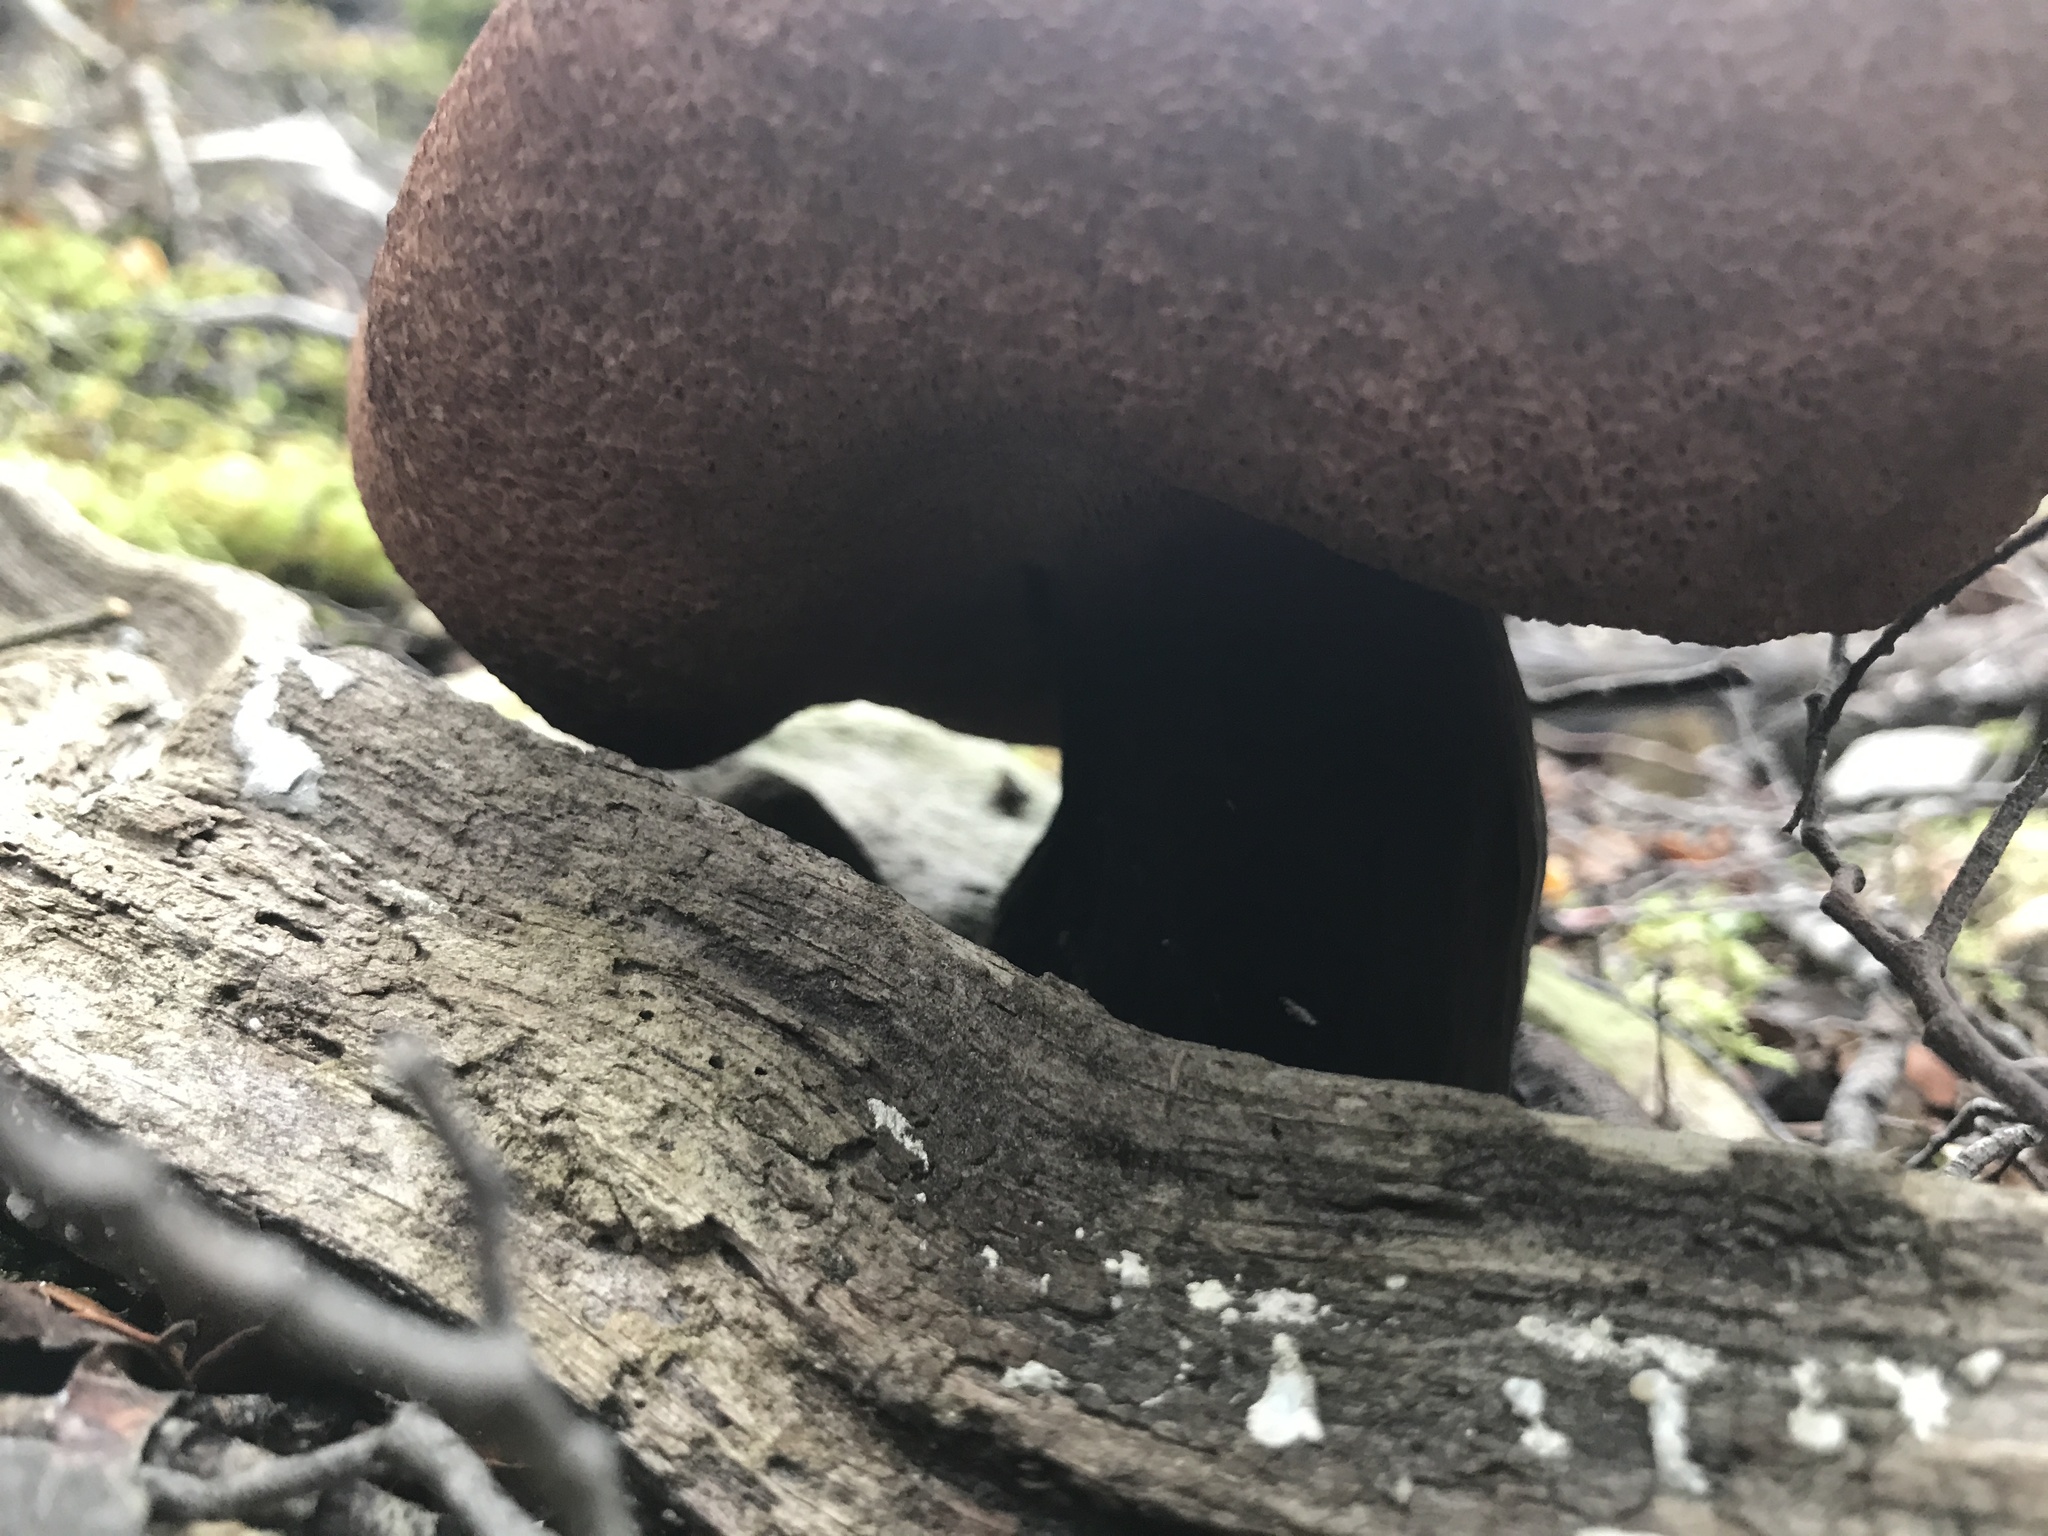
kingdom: Fungi
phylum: Basidiomycota
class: Agaricomycetes
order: Boletales
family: Boletaceae
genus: Porphyrellus
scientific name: Porphyrellus formosus
